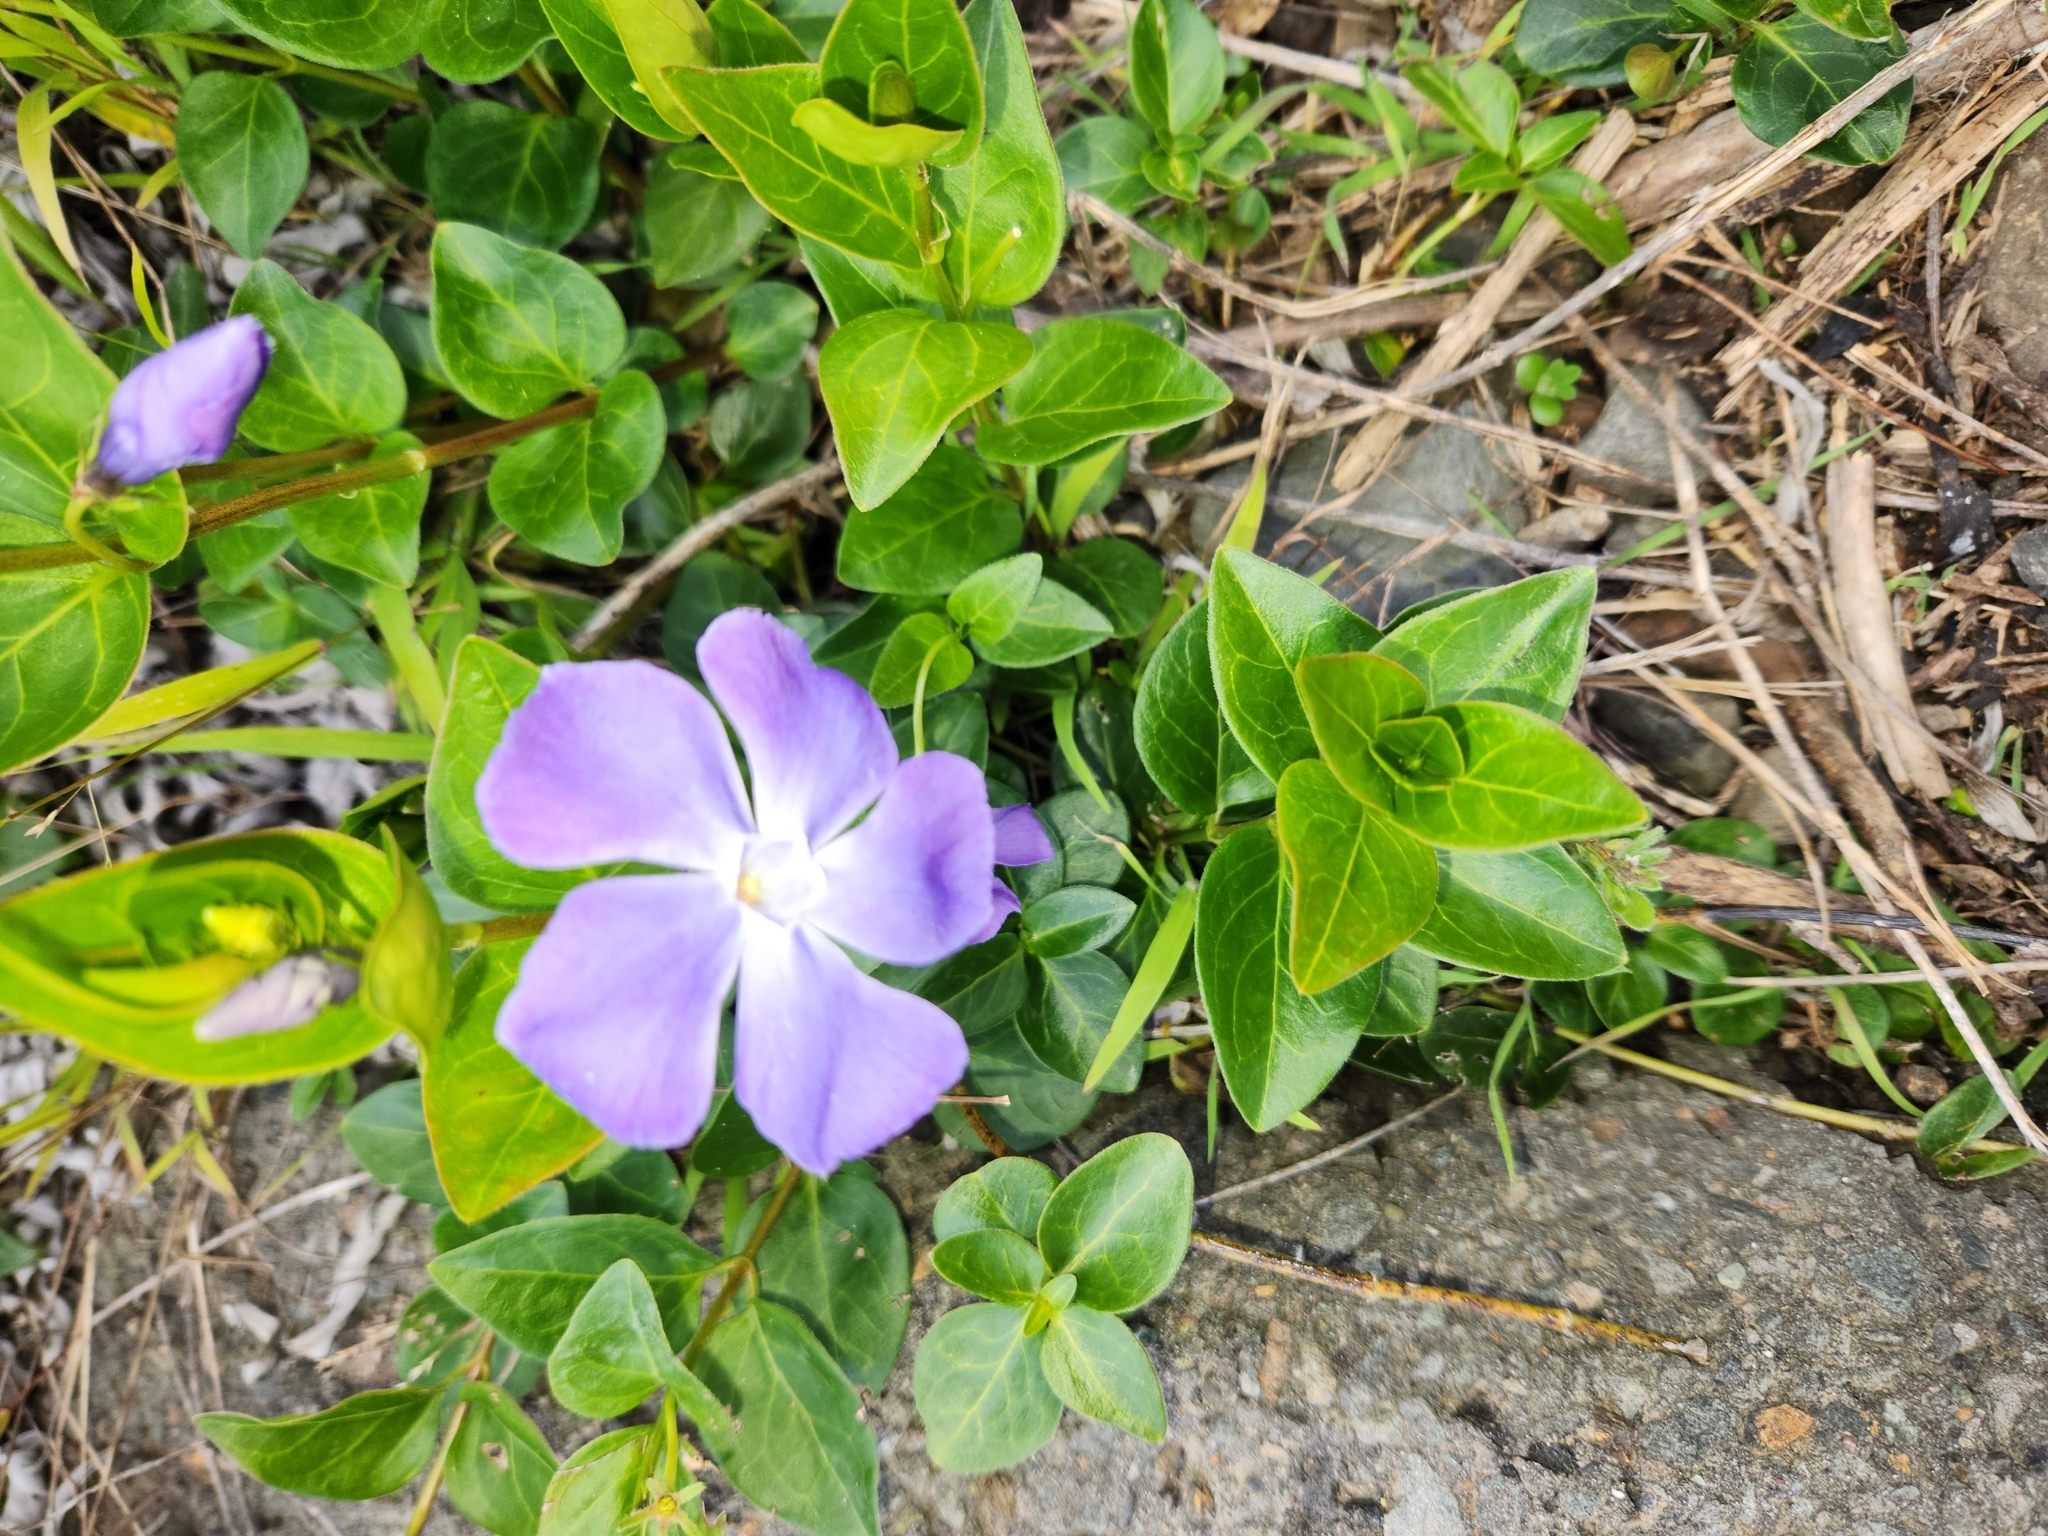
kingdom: Plantae
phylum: Tracheophyta
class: Magnoliopsida
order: Gentianales
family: Apocynaceae
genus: Vinca
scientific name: Vinca major
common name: Greater periwinkle
